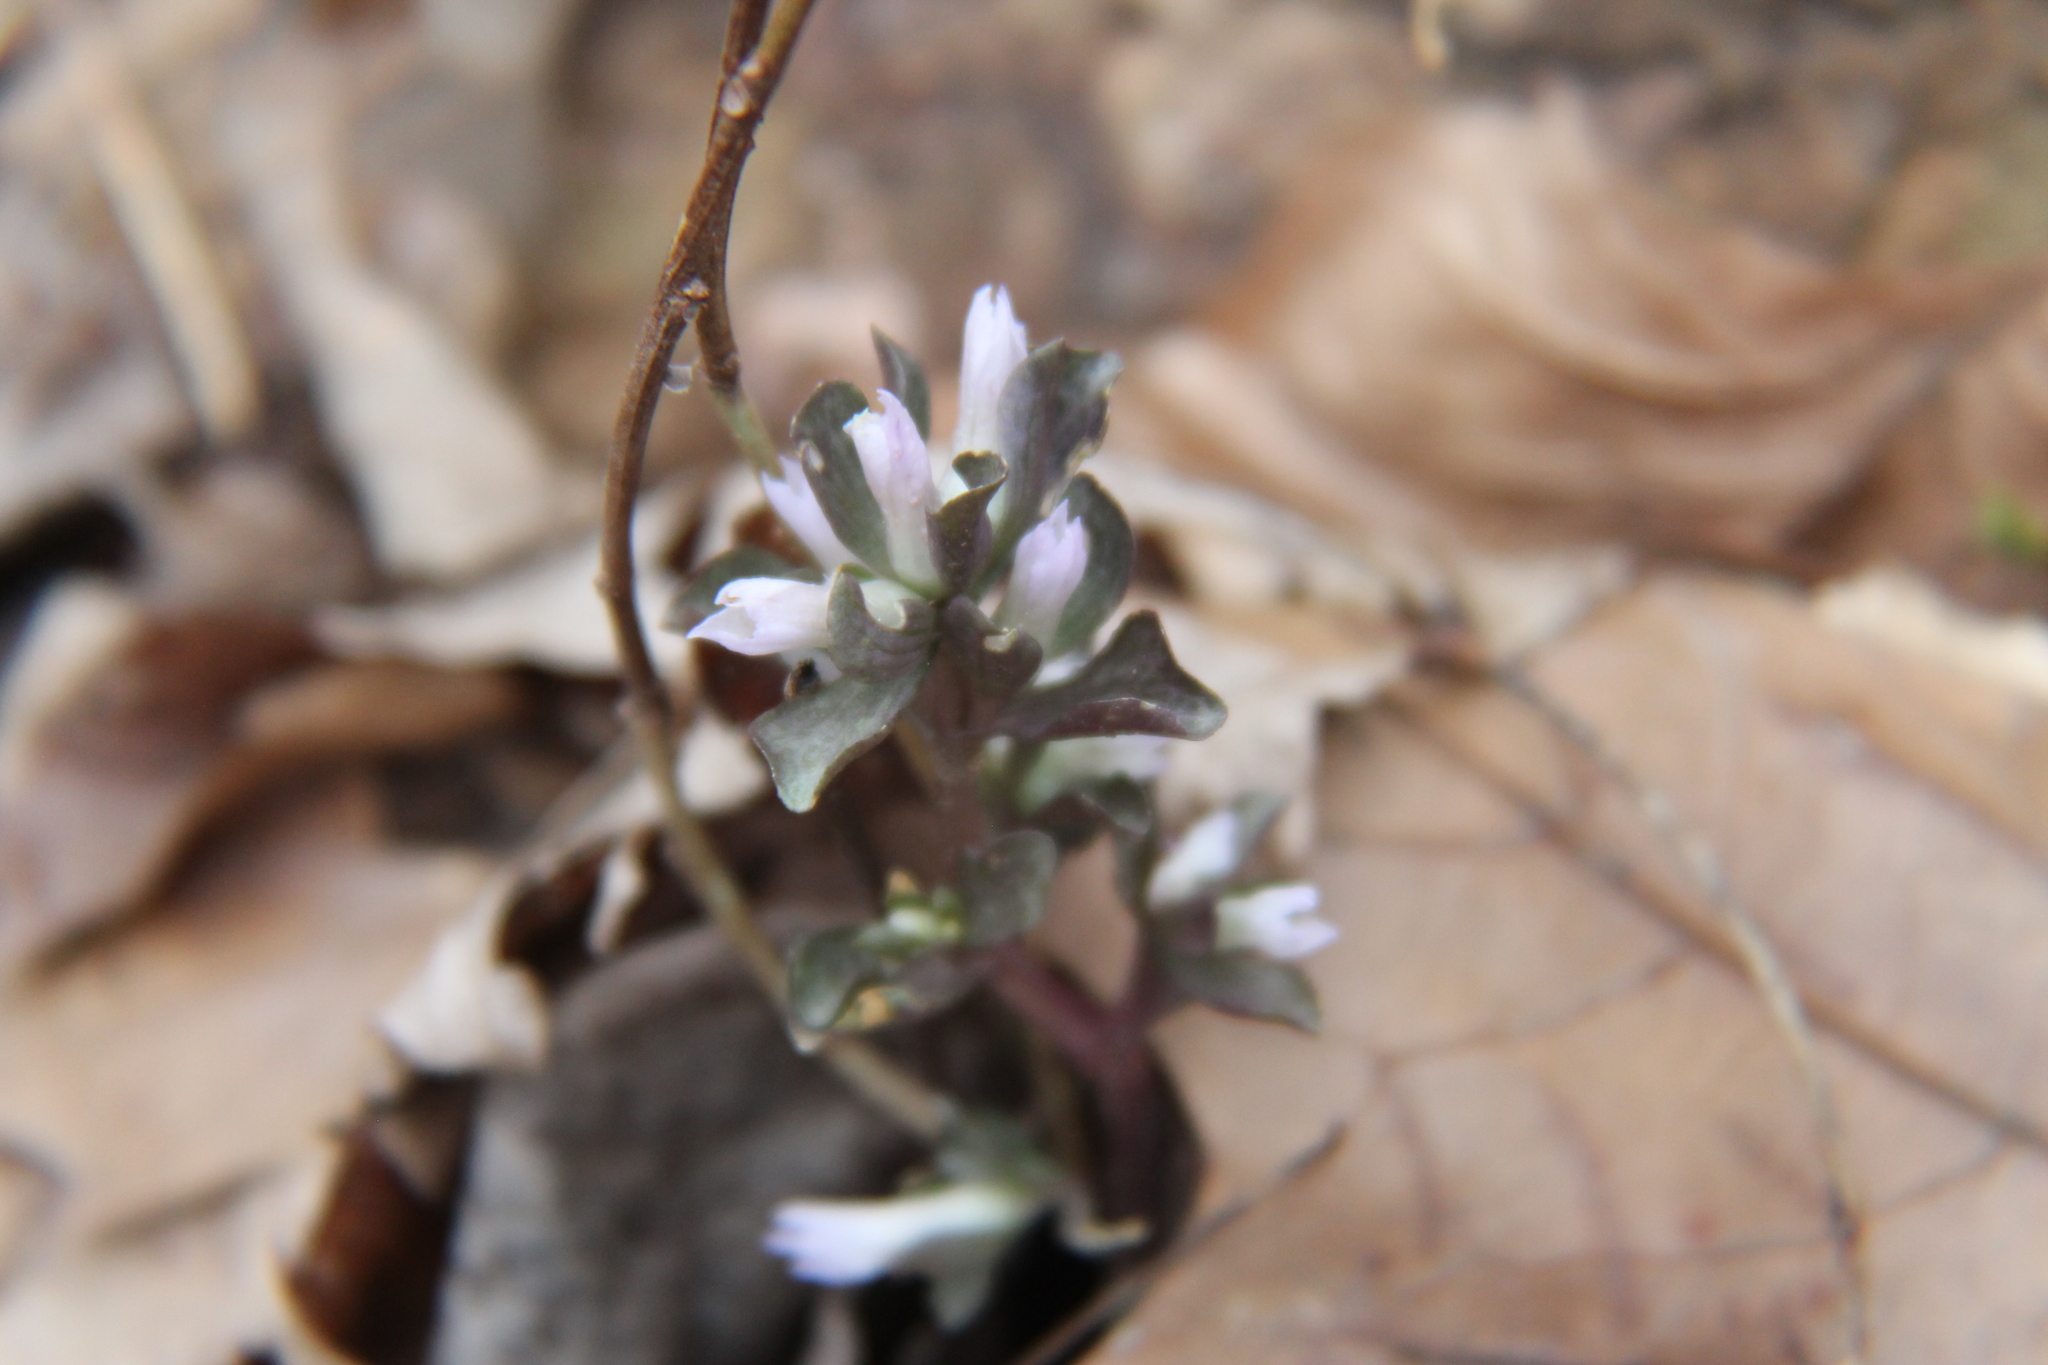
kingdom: Plantae
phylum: Tracheophyta
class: Magnoliopsida
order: Gentianales
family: Gentianaceae
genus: Obolaria
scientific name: Obolaria virginica
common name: Pennywort
